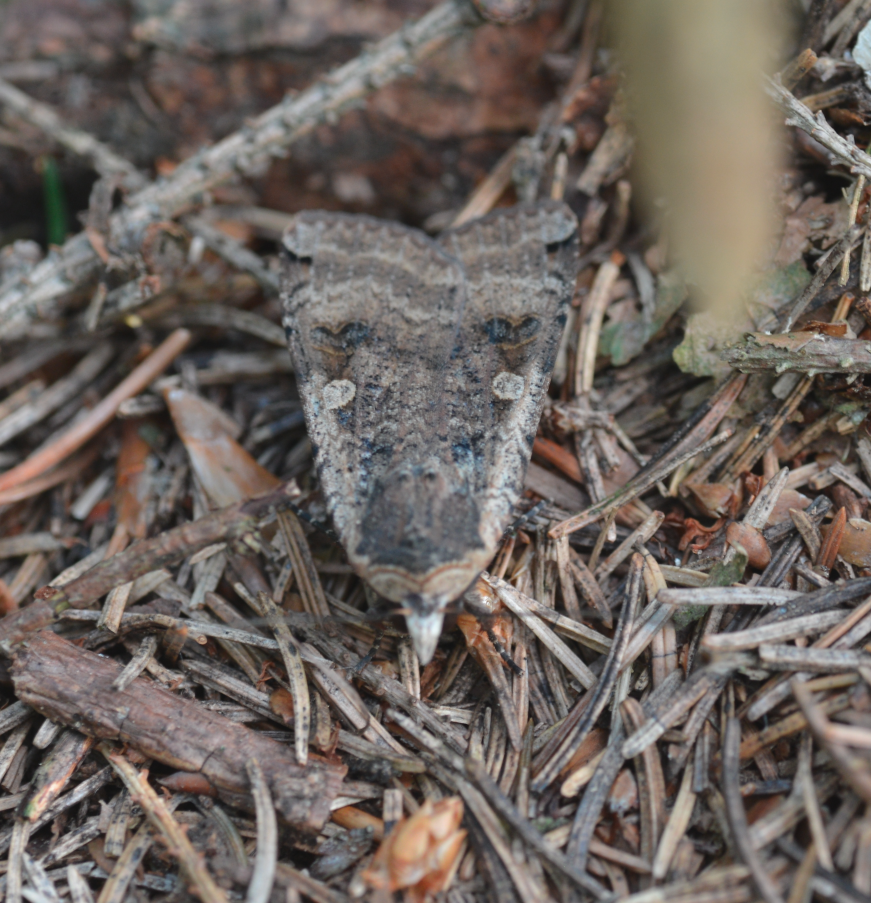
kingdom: Animalia
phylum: Arthropoda
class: Insecta
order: Lepidoptera
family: Noctuidae
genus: Noctua
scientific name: Noctua pronuba
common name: Large yellow underwing
